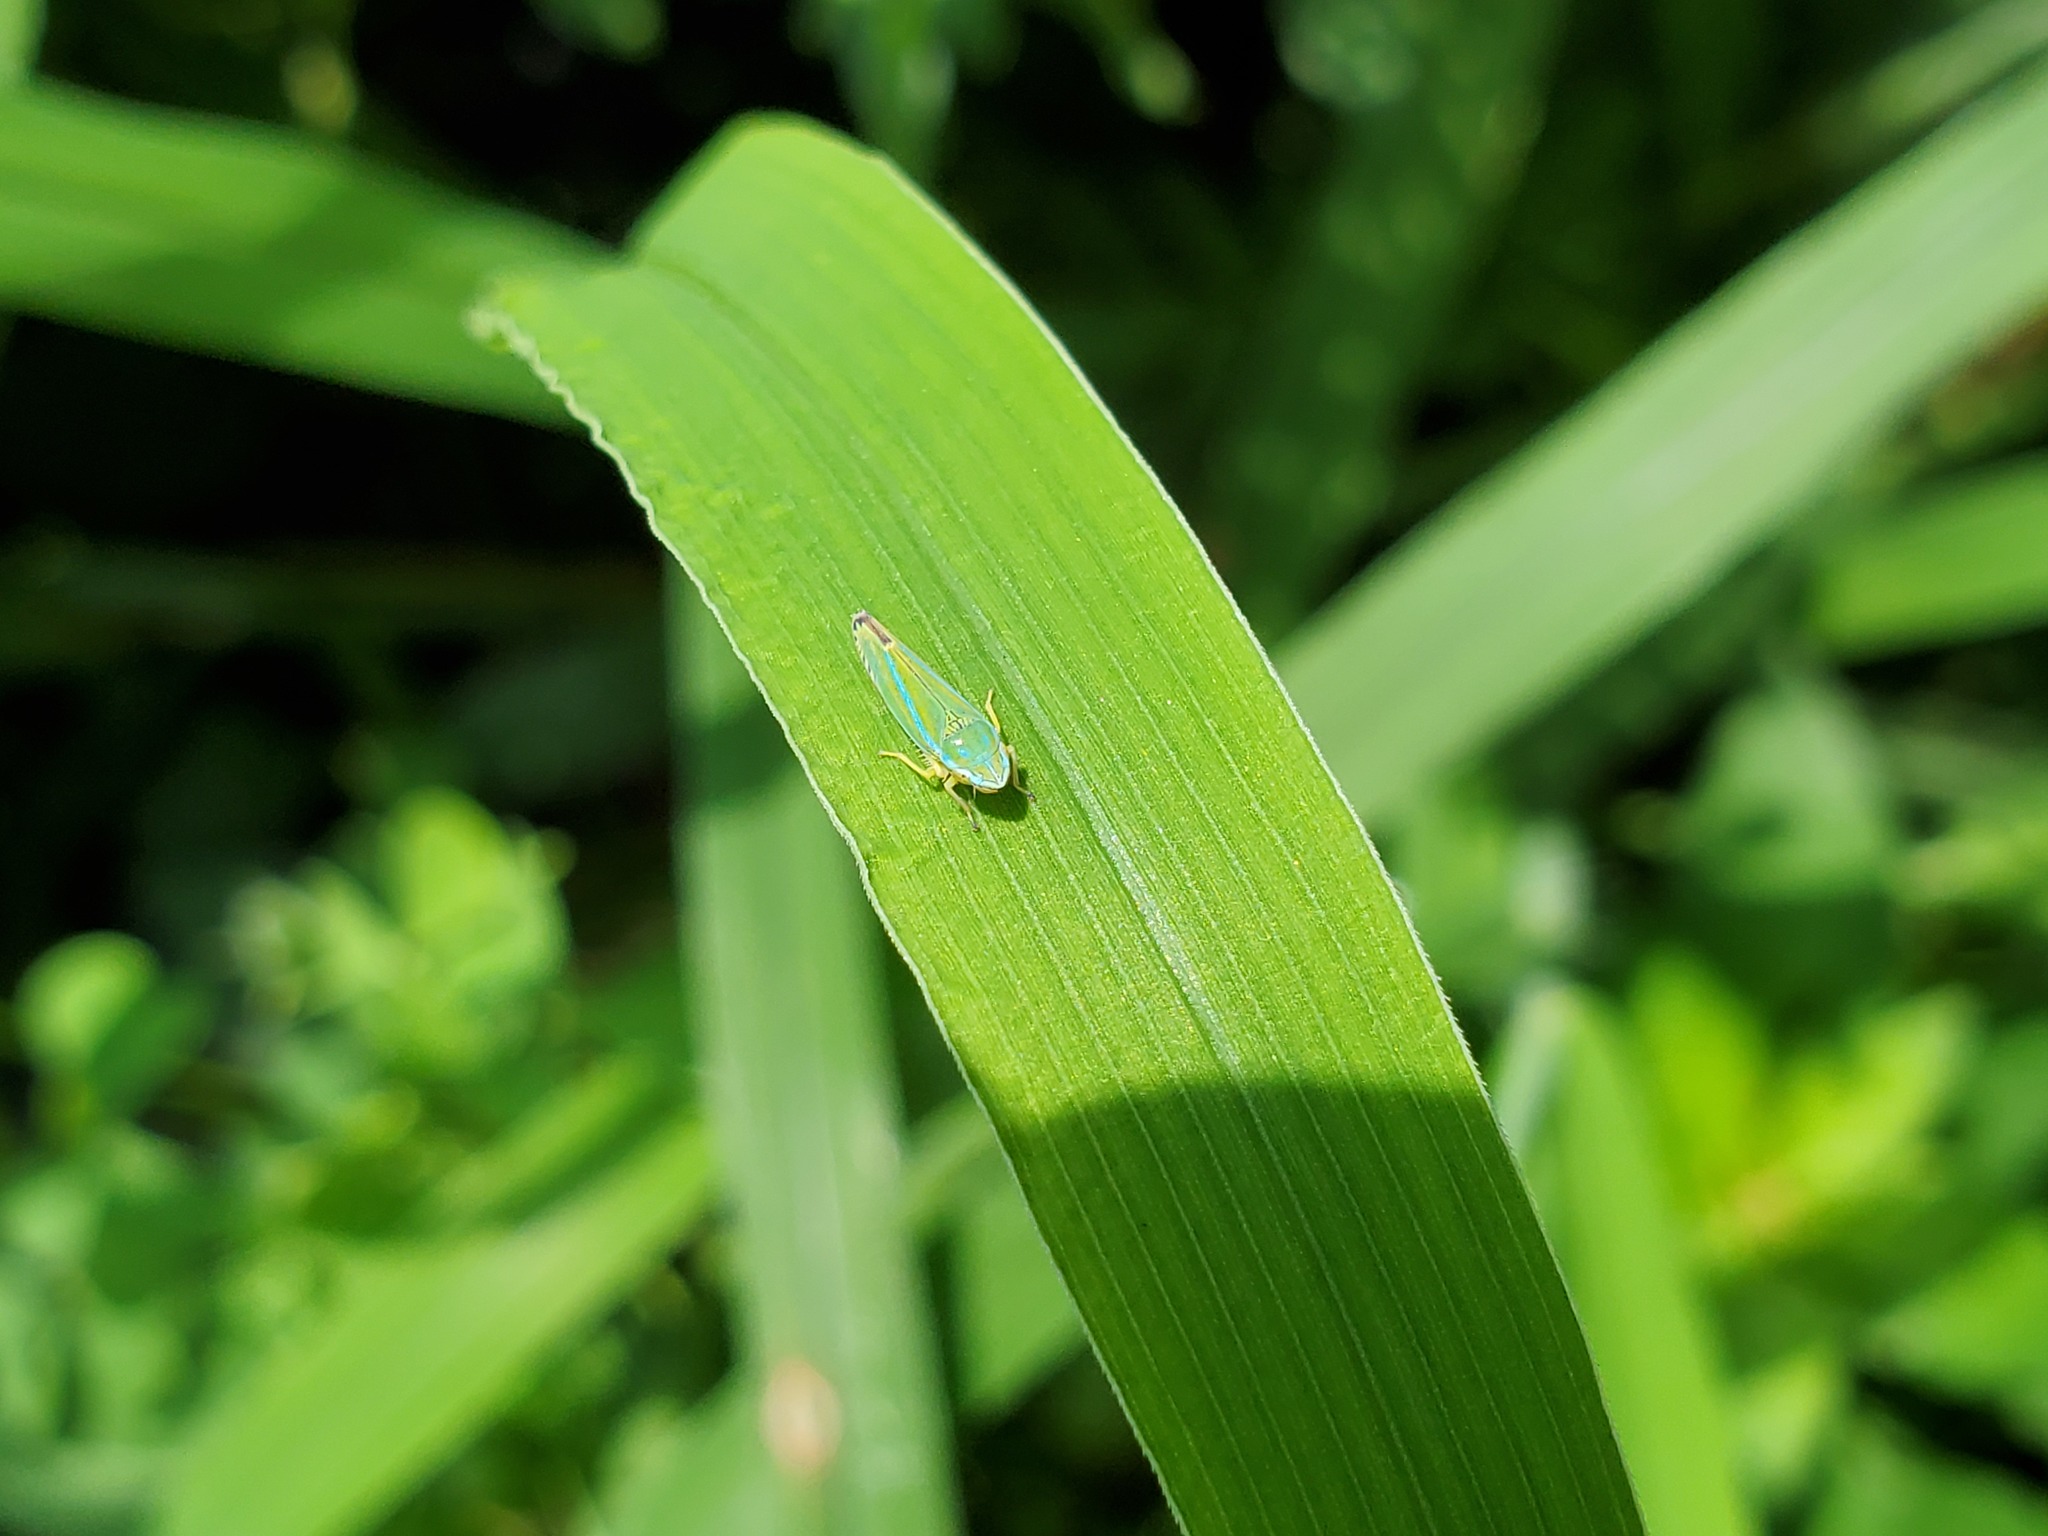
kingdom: Animalia
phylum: Arthropoda
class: Insecta
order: Hemiptera
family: Cicadellidae
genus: Graphocephala
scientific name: Graphocephala versuta
